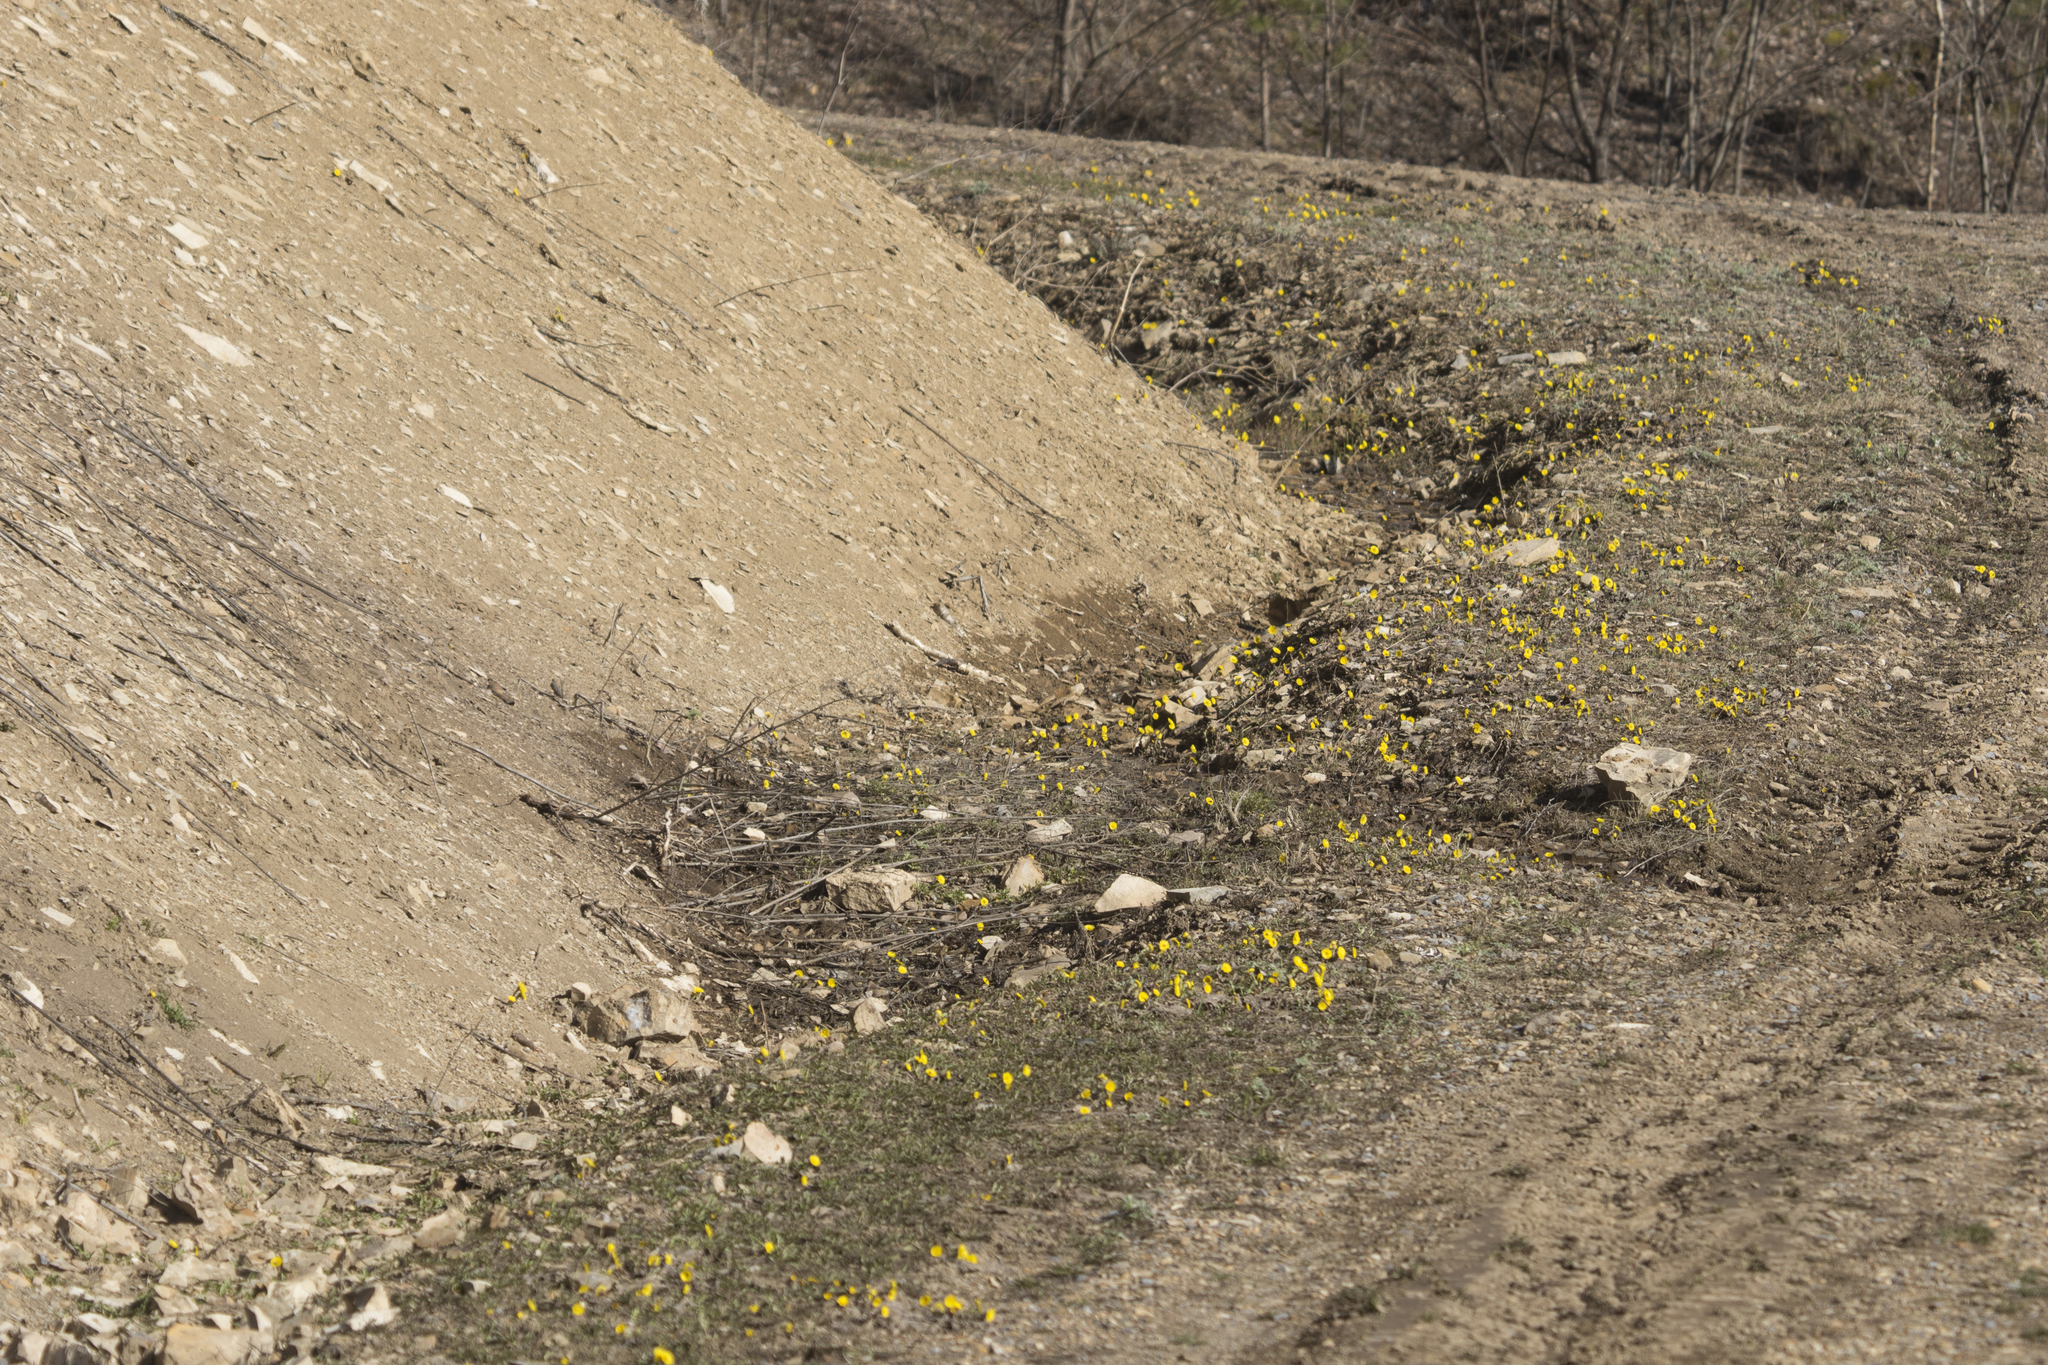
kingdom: Plantae
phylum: Tracheophyta
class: Magnoliopsida
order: Asterales
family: Asteraceae
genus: Tussilago
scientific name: Tussilago farfara
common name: Coltsfoot
